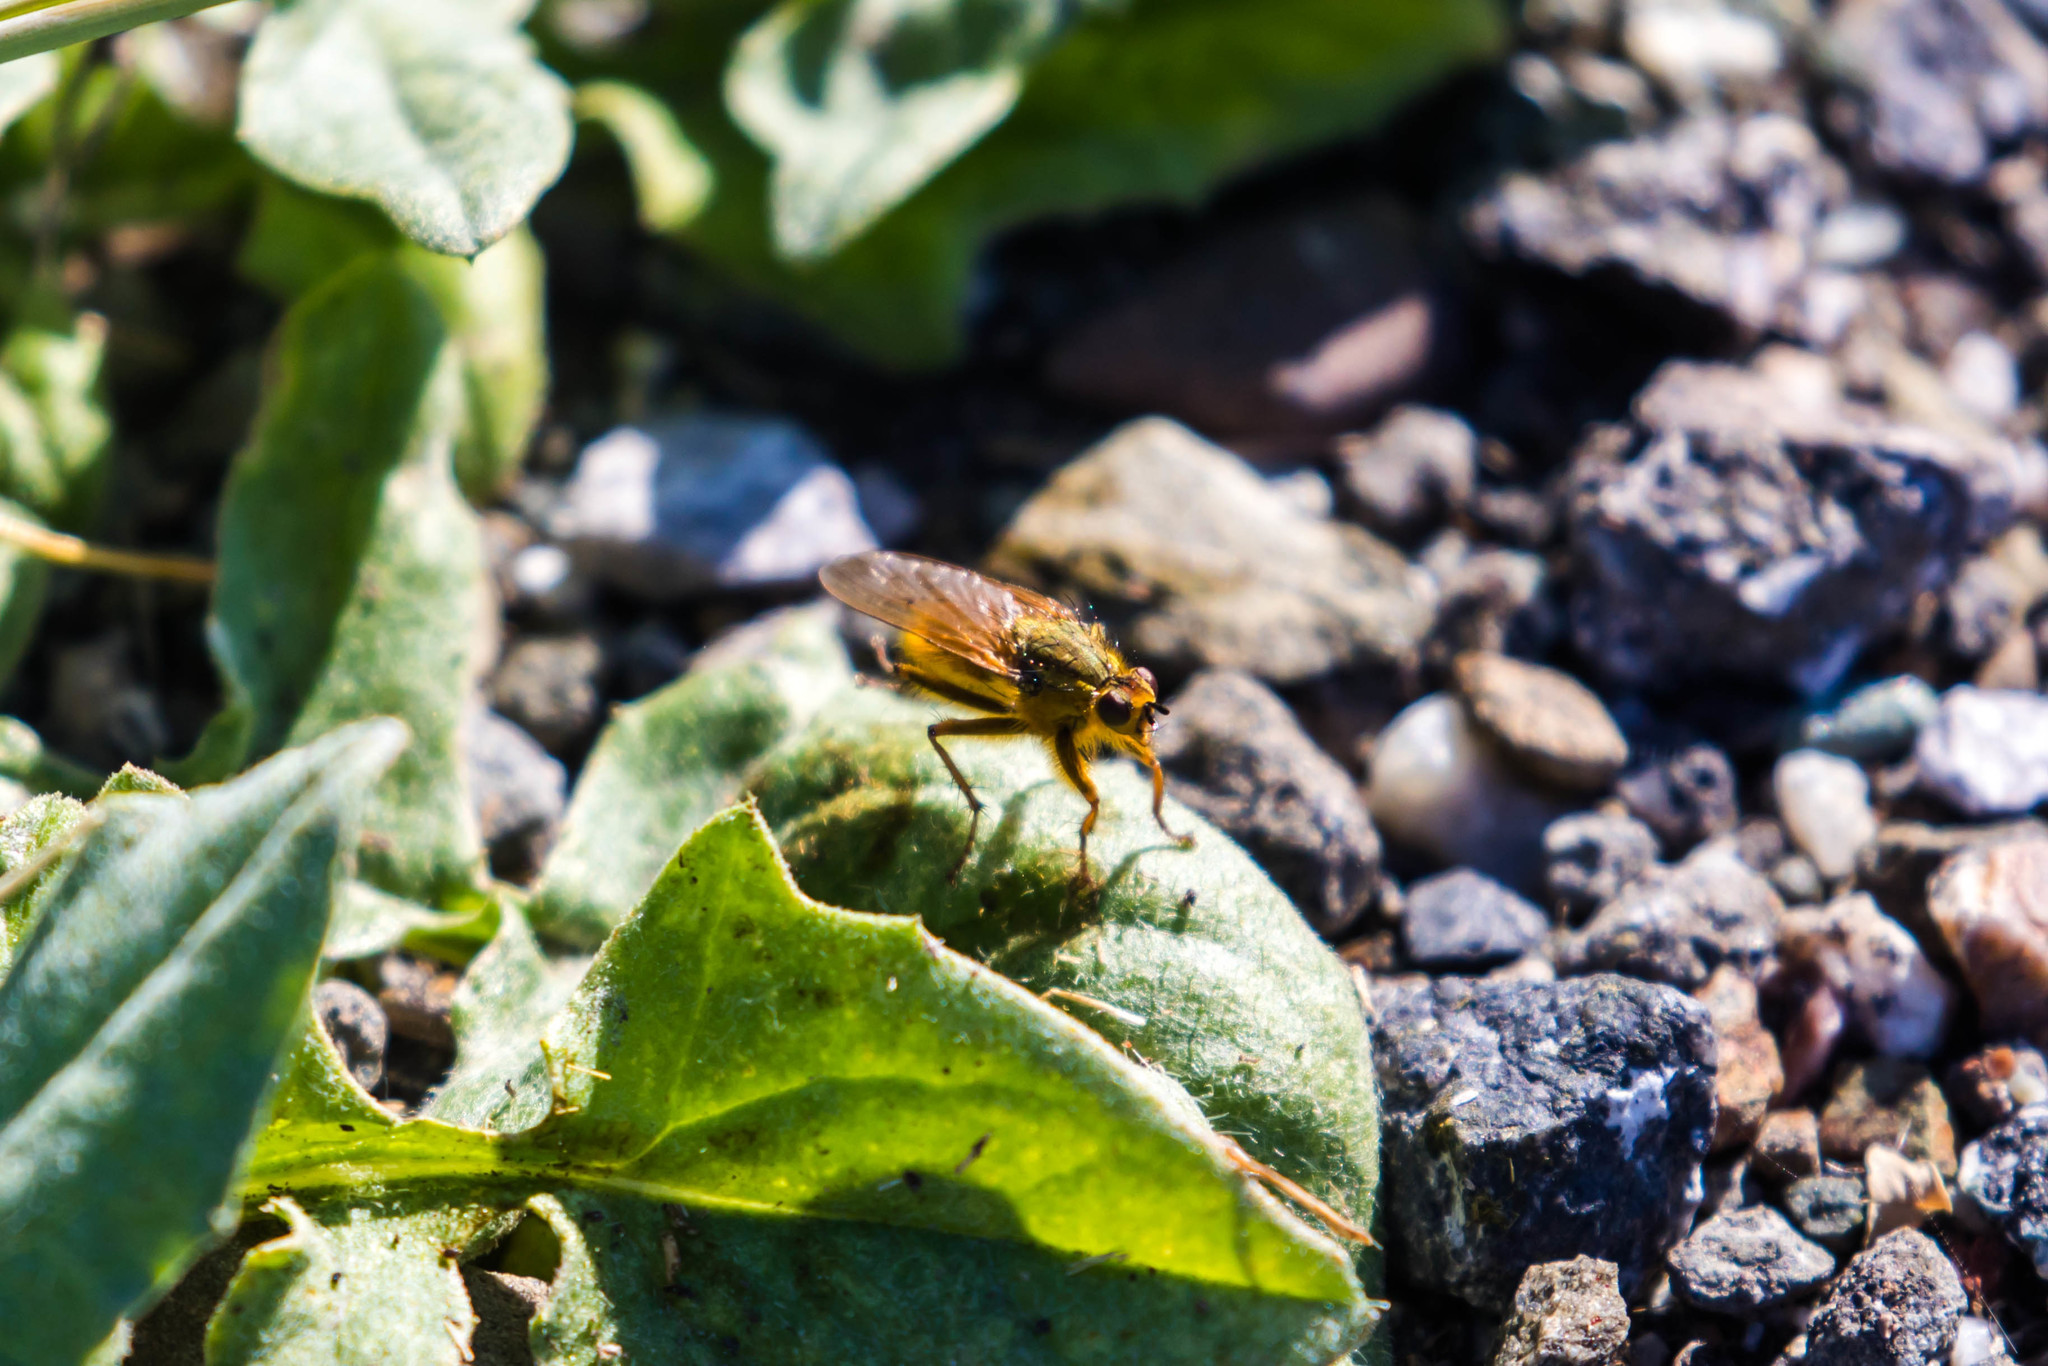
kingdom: Animalia
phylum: Arthropoda
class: Insecta
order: Diptera
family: Scathophagidae
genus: Scathophaga
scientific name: Scathophaga stercoraria
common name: Yellow dung fly
